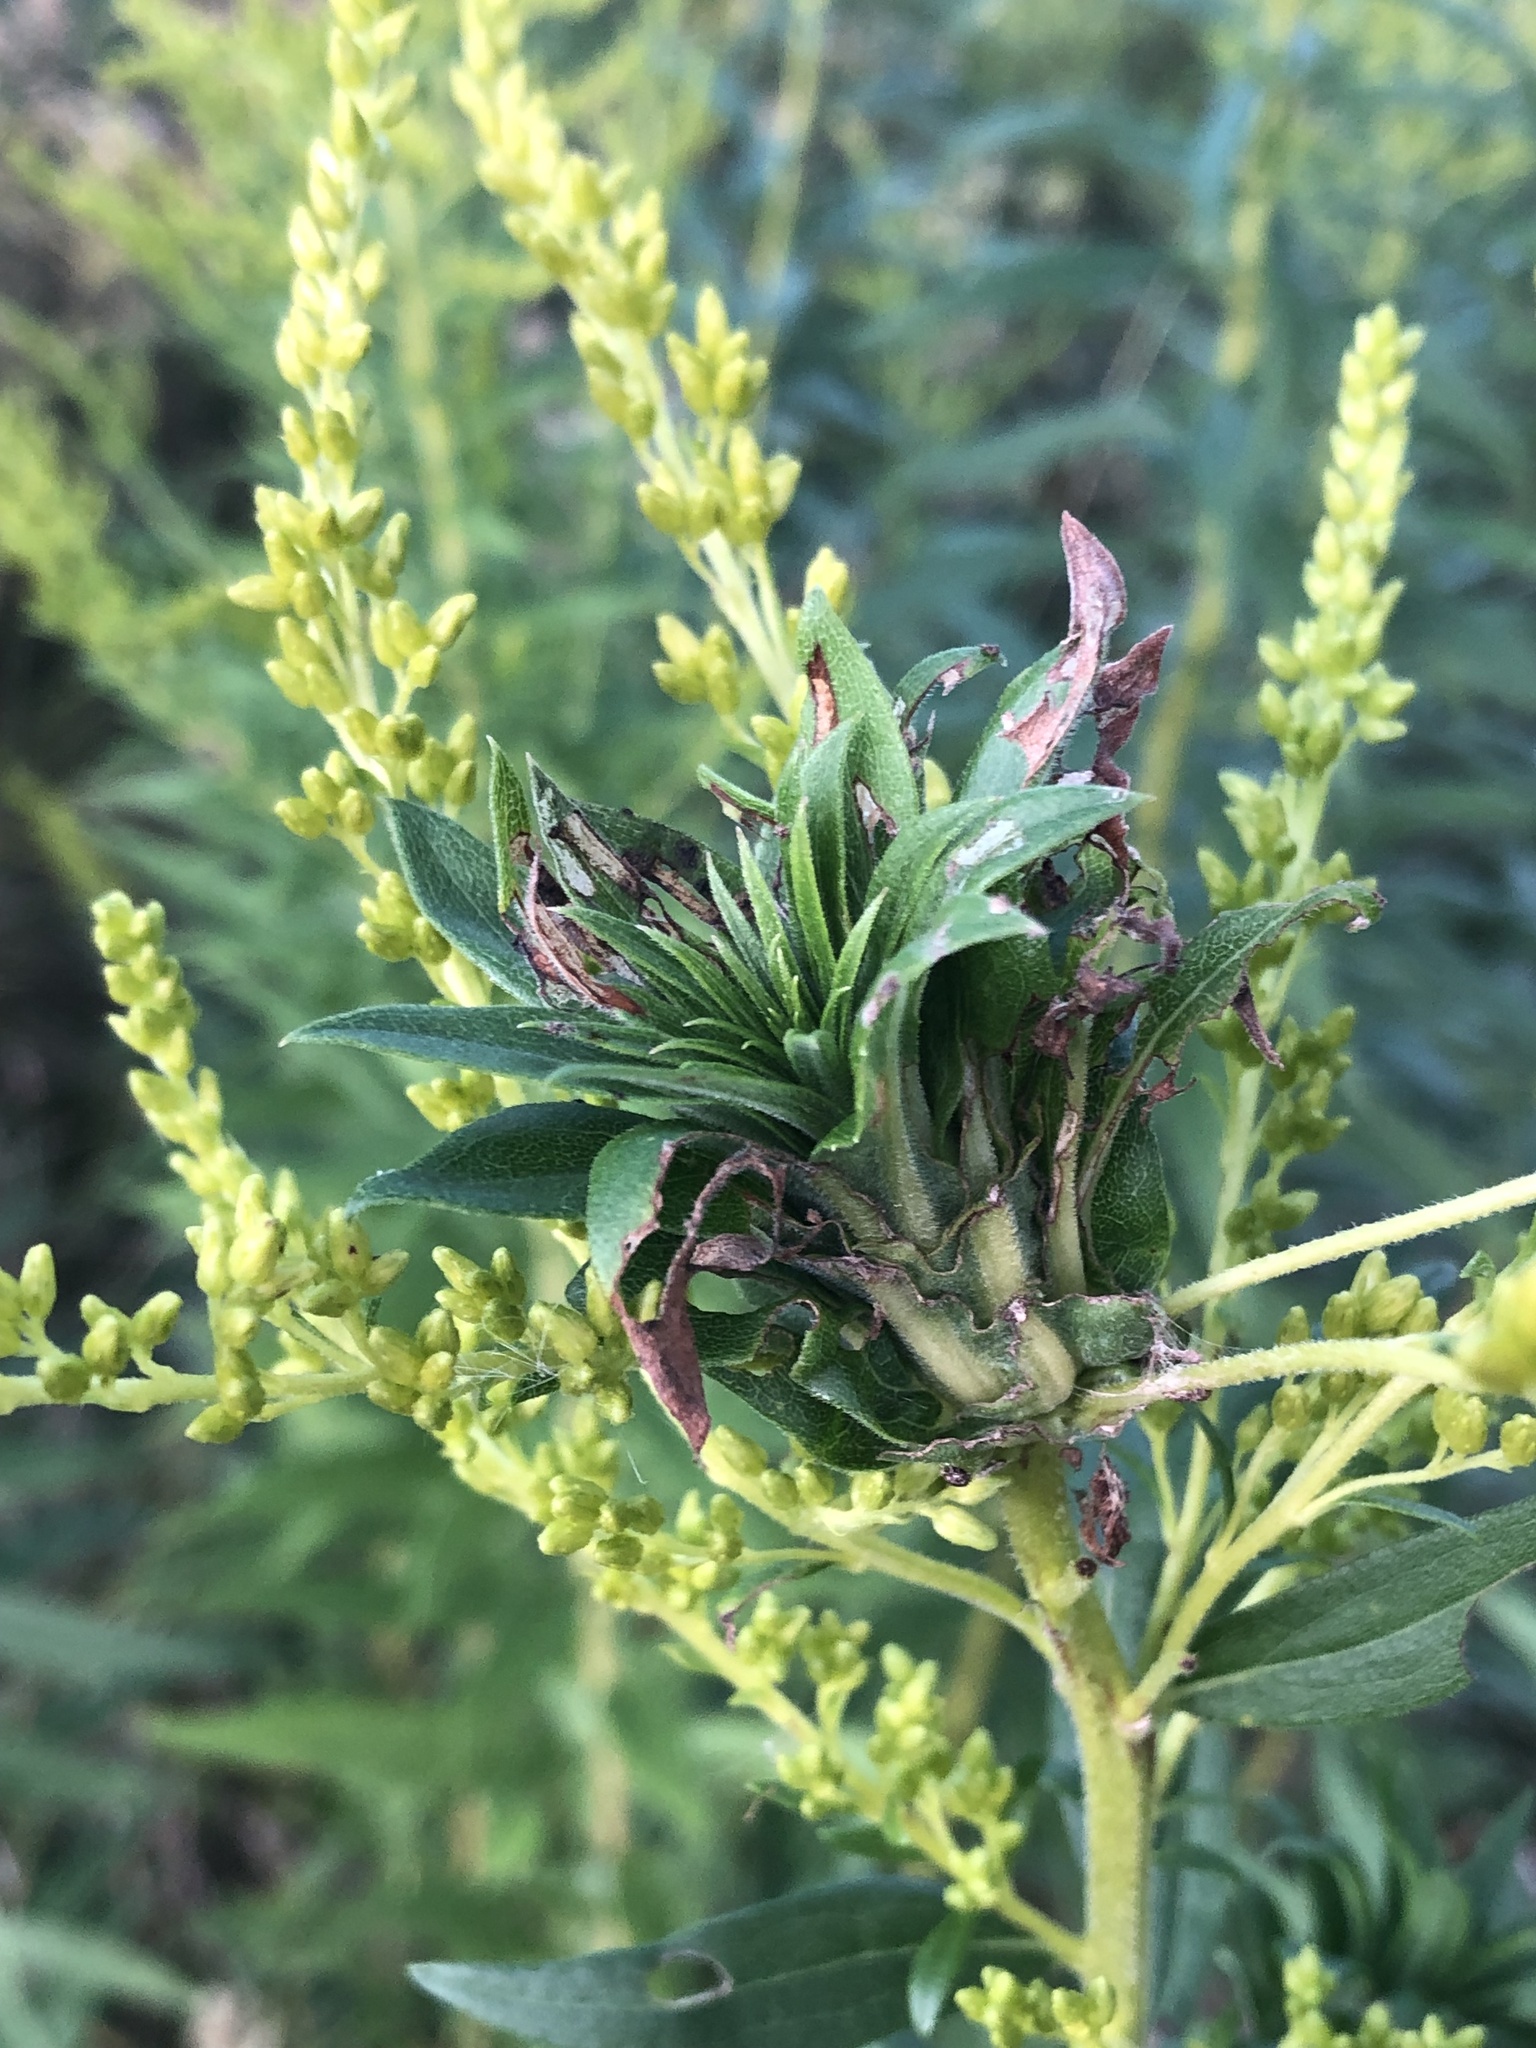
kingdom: Animalia
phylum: Arthropoda
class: Insecta
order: Diptera
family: Cecidomyiidae
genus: Rhopalomyia
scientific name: Rhopalomyia solidaginis
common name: Goldenrod bunch gall midge
